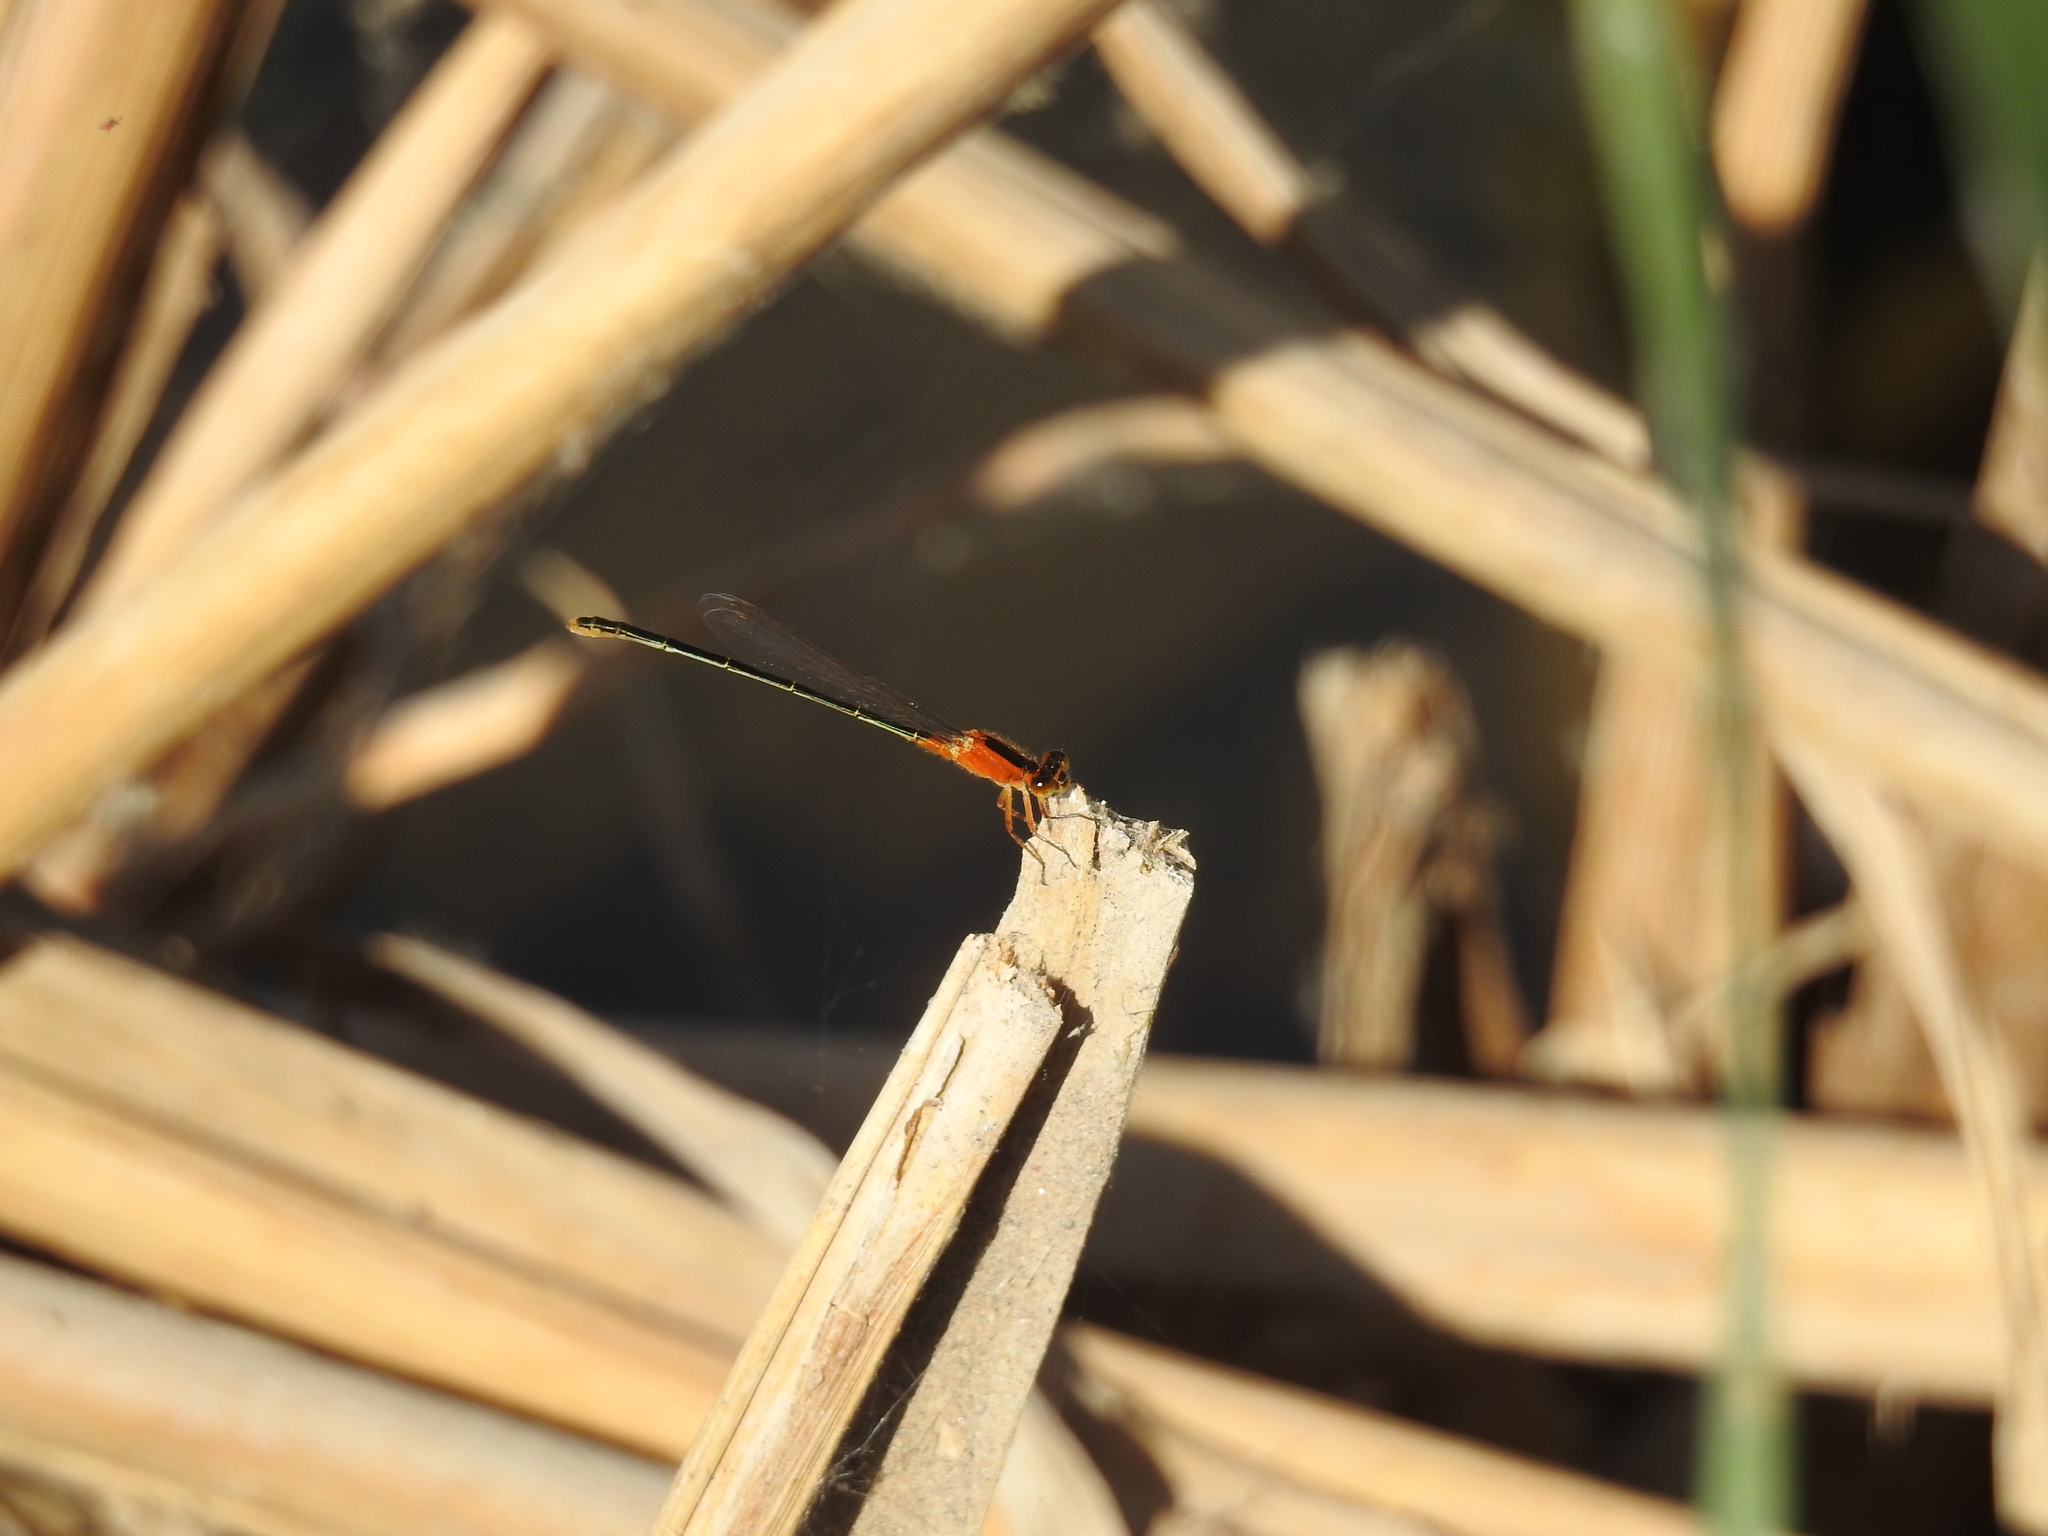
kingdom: Animalia
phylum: Arthropoda
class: Insecta
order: Odonata
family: Coenagrionidae
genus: Ischnura
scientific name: Ischnura ramburii
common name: Rambur's forktail
